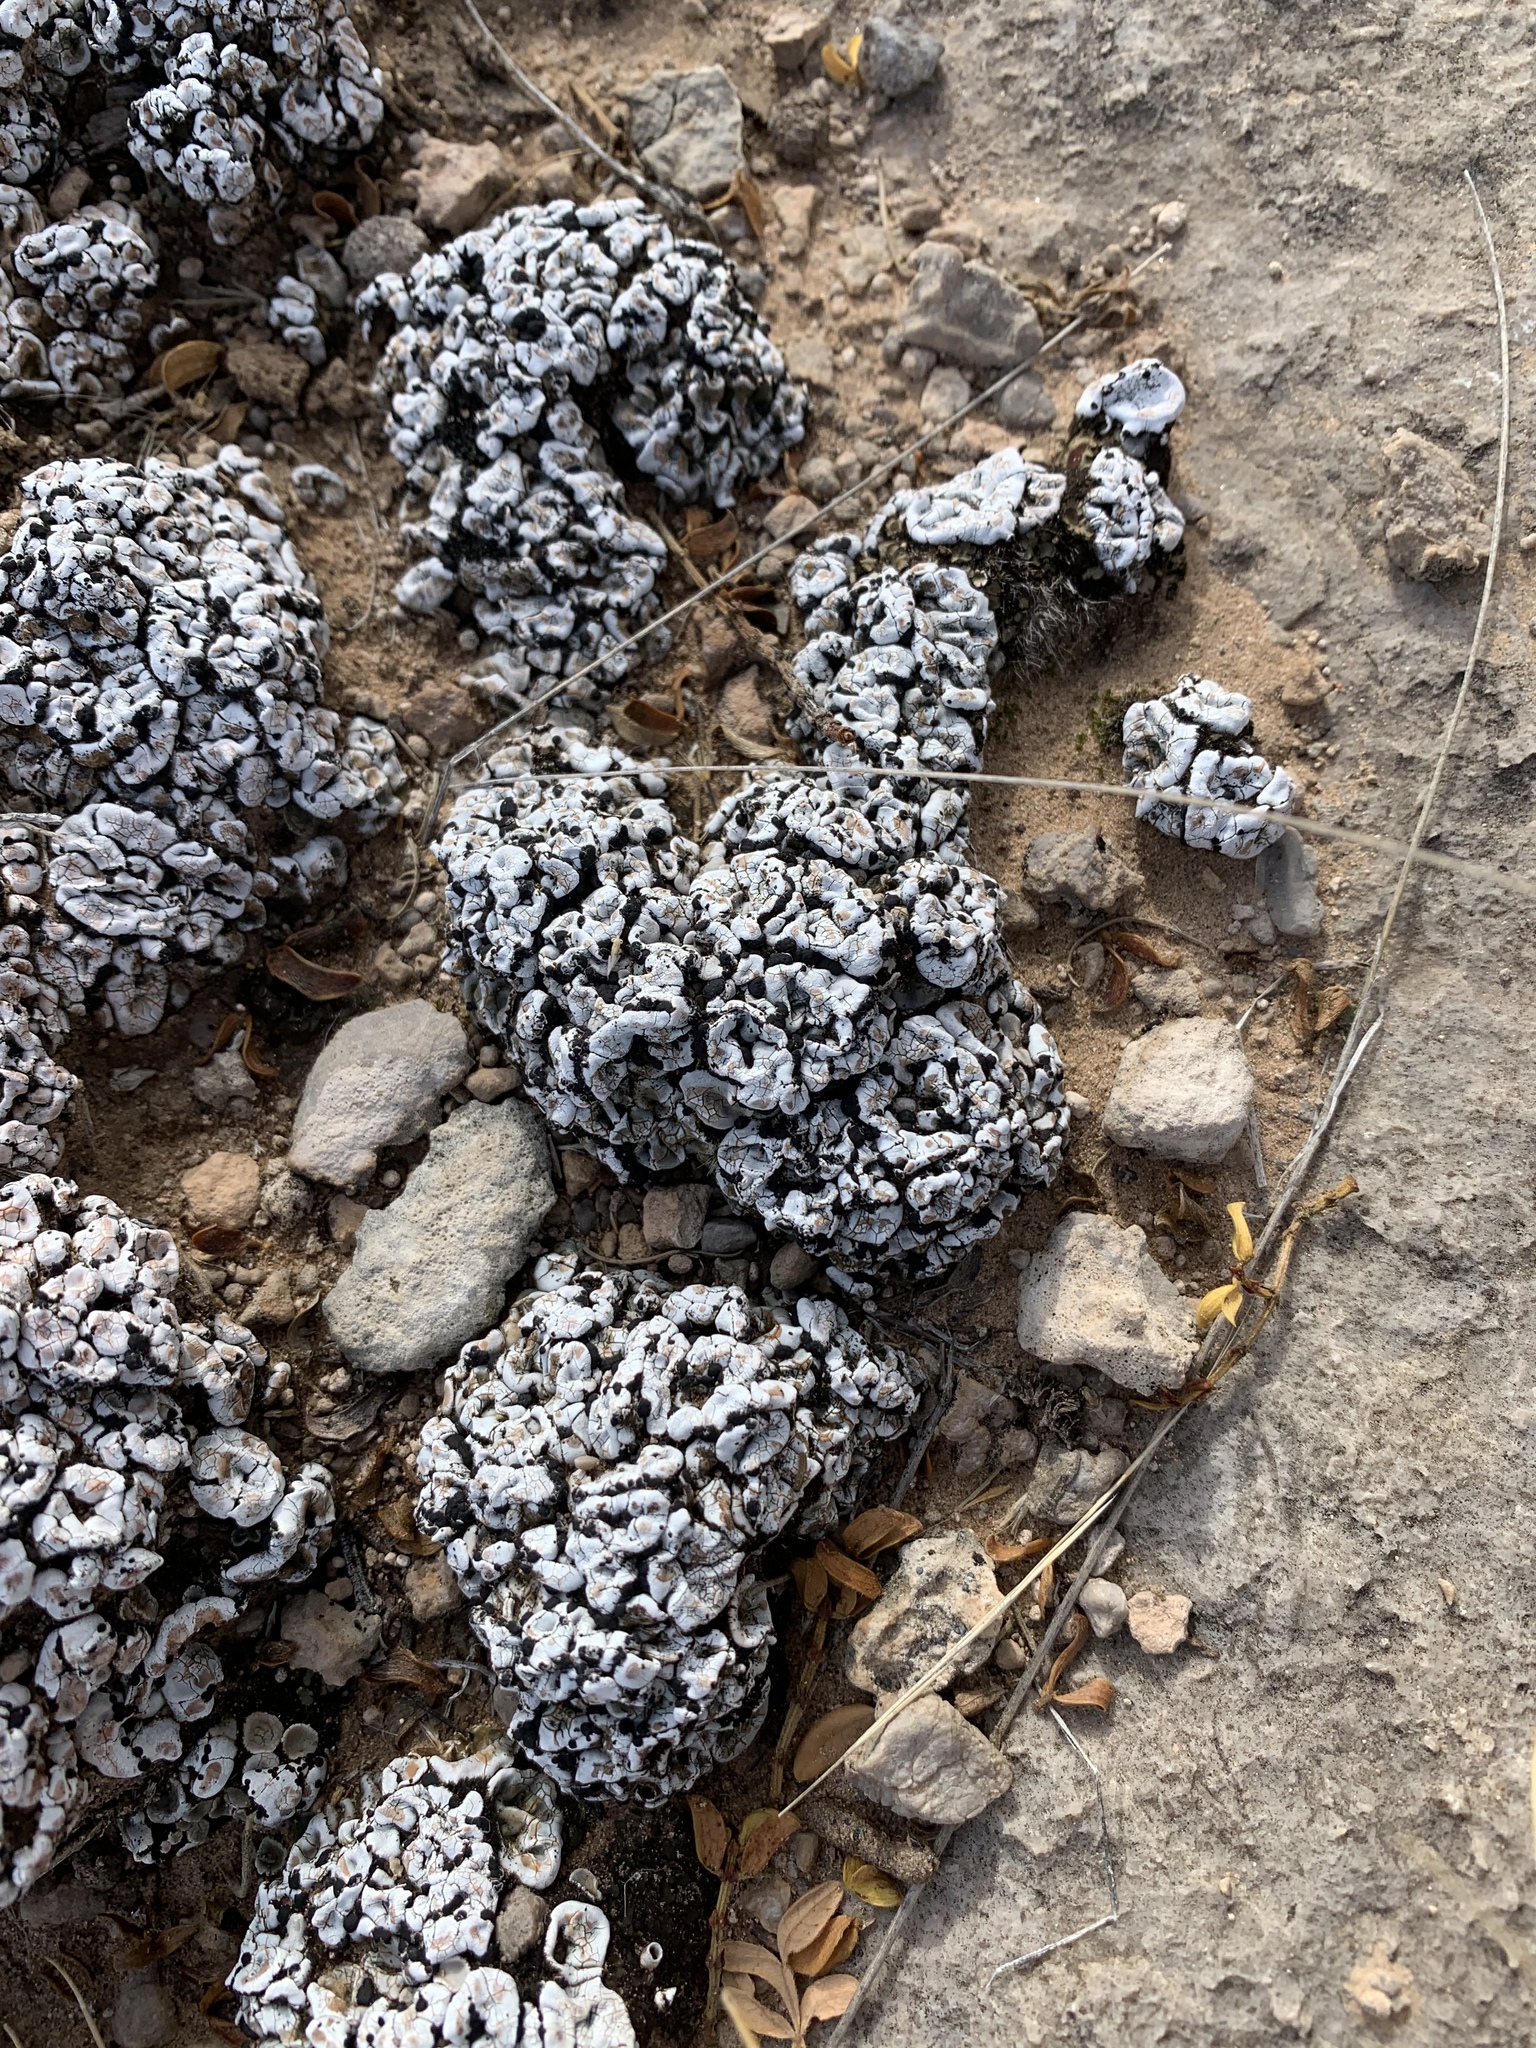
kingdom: Fungi
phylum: Ascomycota
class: Lecanoromycetes
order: Lecanorales
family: Psoraceae
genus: Psora
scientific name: Psora crenata
